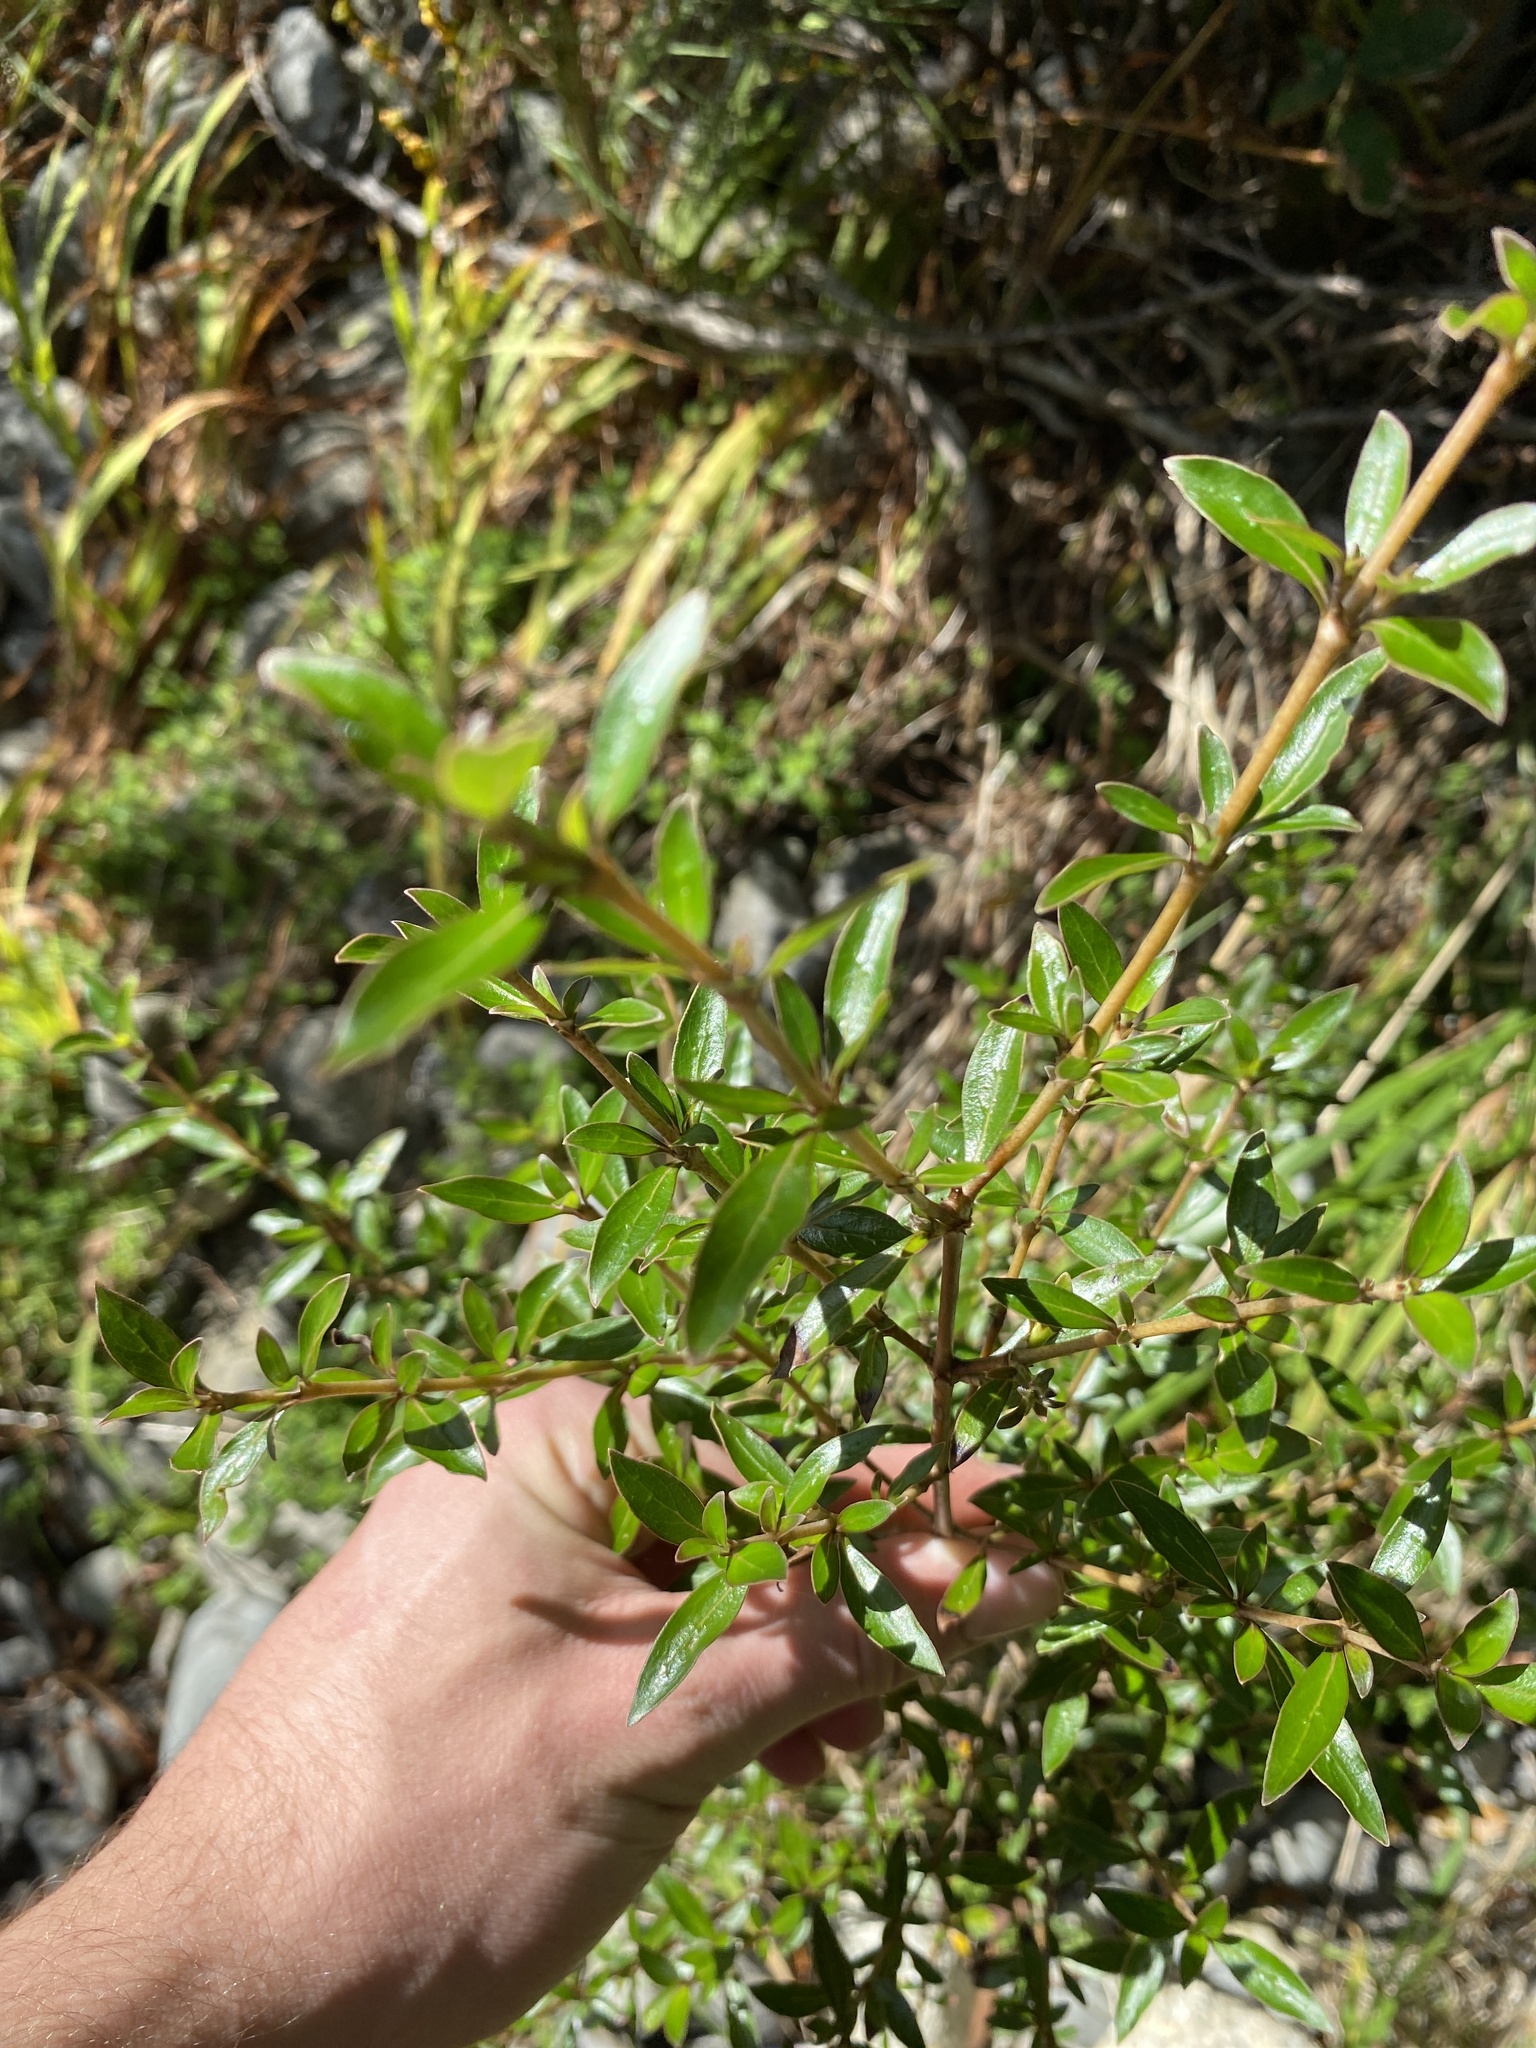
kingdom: Plantae
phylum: Tracheophyta
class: Magnoliopsida
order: Gentianales
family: Rubiaceae
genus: Coprosma
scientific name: Coprosma cunninghamii
